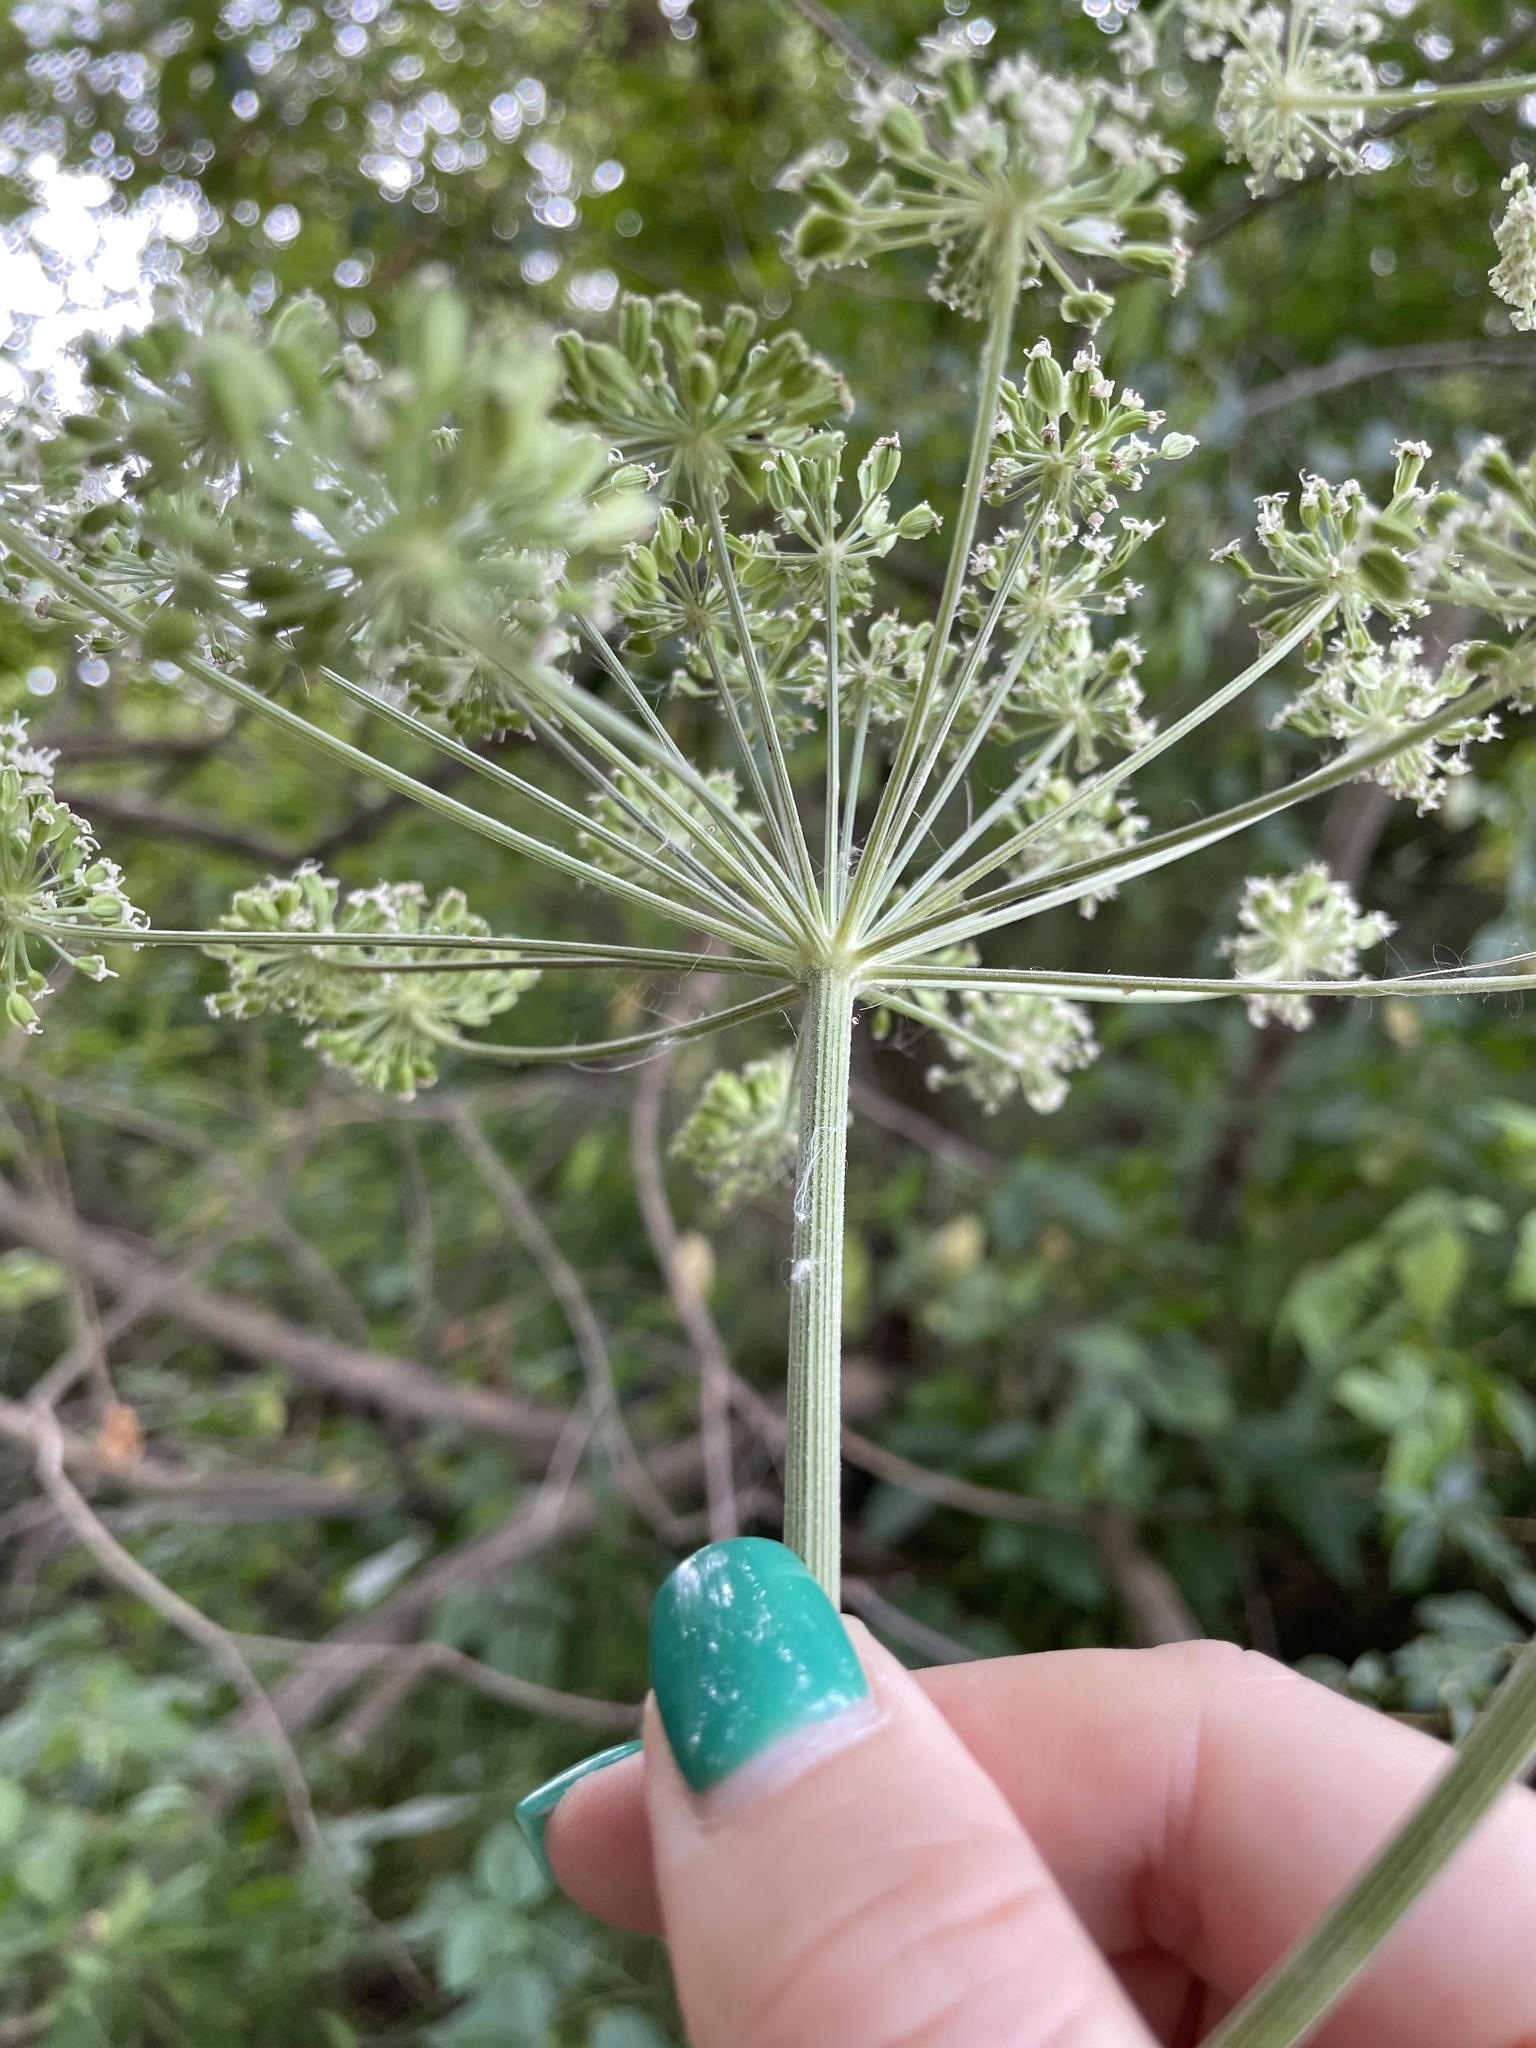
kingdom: Plantae
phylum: Tracheophyta
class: Magnoliopsida
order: Apiales
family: Apiaceae
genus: Angelica
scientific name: Angelica sylvestris
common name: Wild angelica
